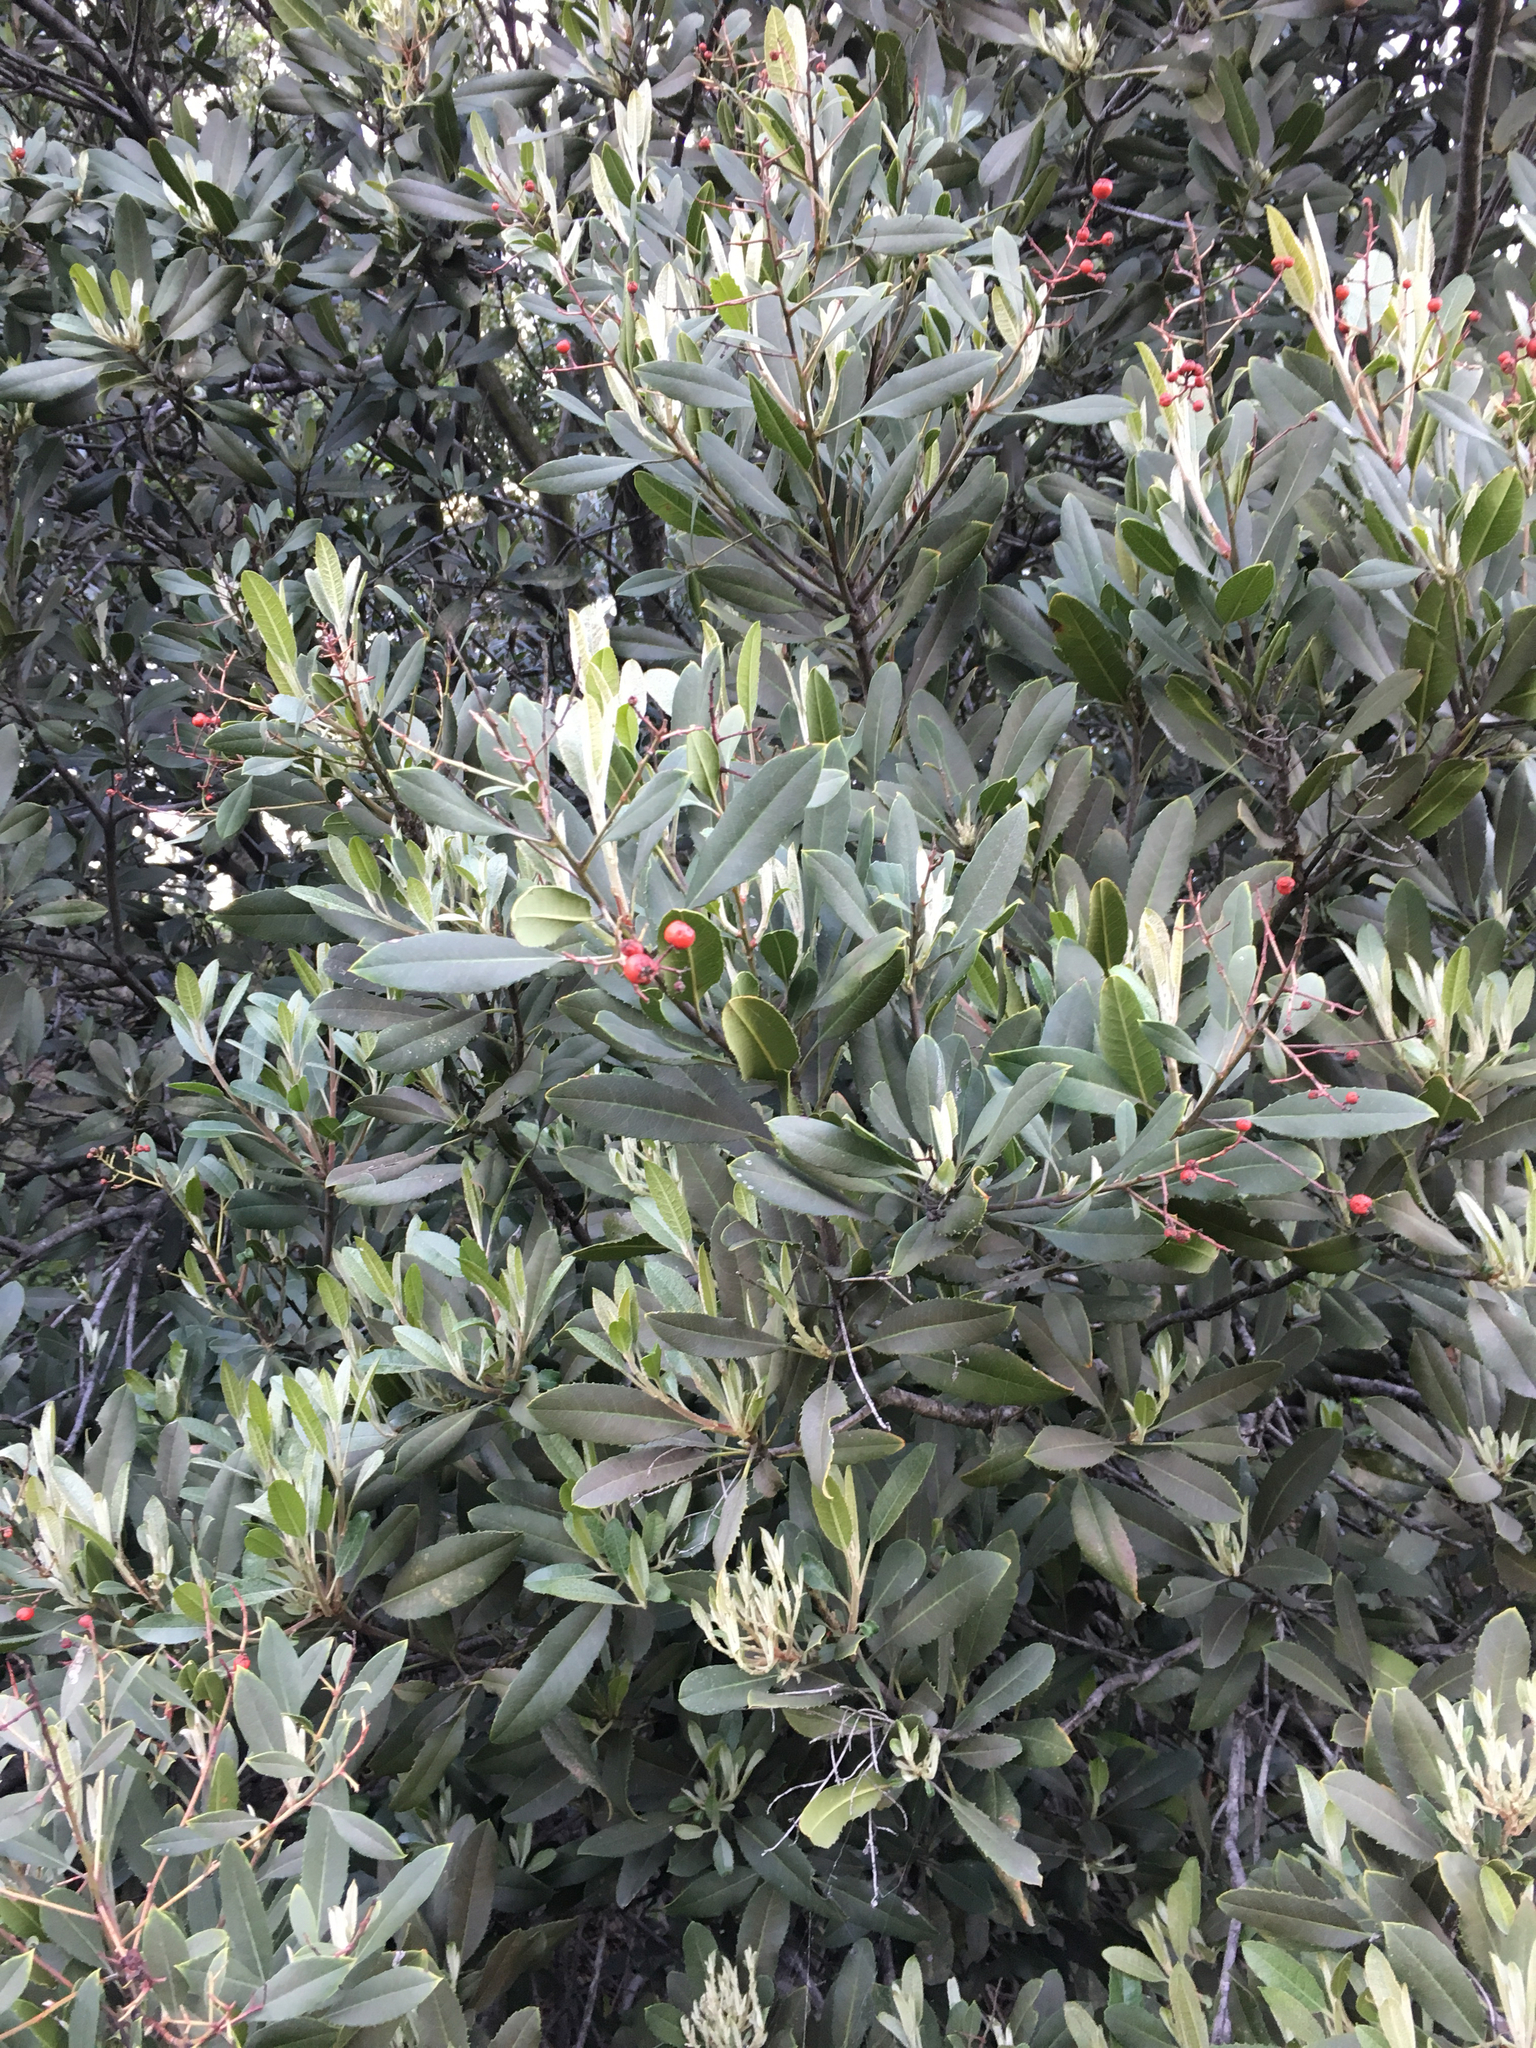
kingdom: Plantae
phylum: Tracheophyta
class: Magnoliopsida
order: Rosales
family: Rosaceae
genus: Heteromeles
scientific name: Heteromeles arbutifolia
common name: California-holly
